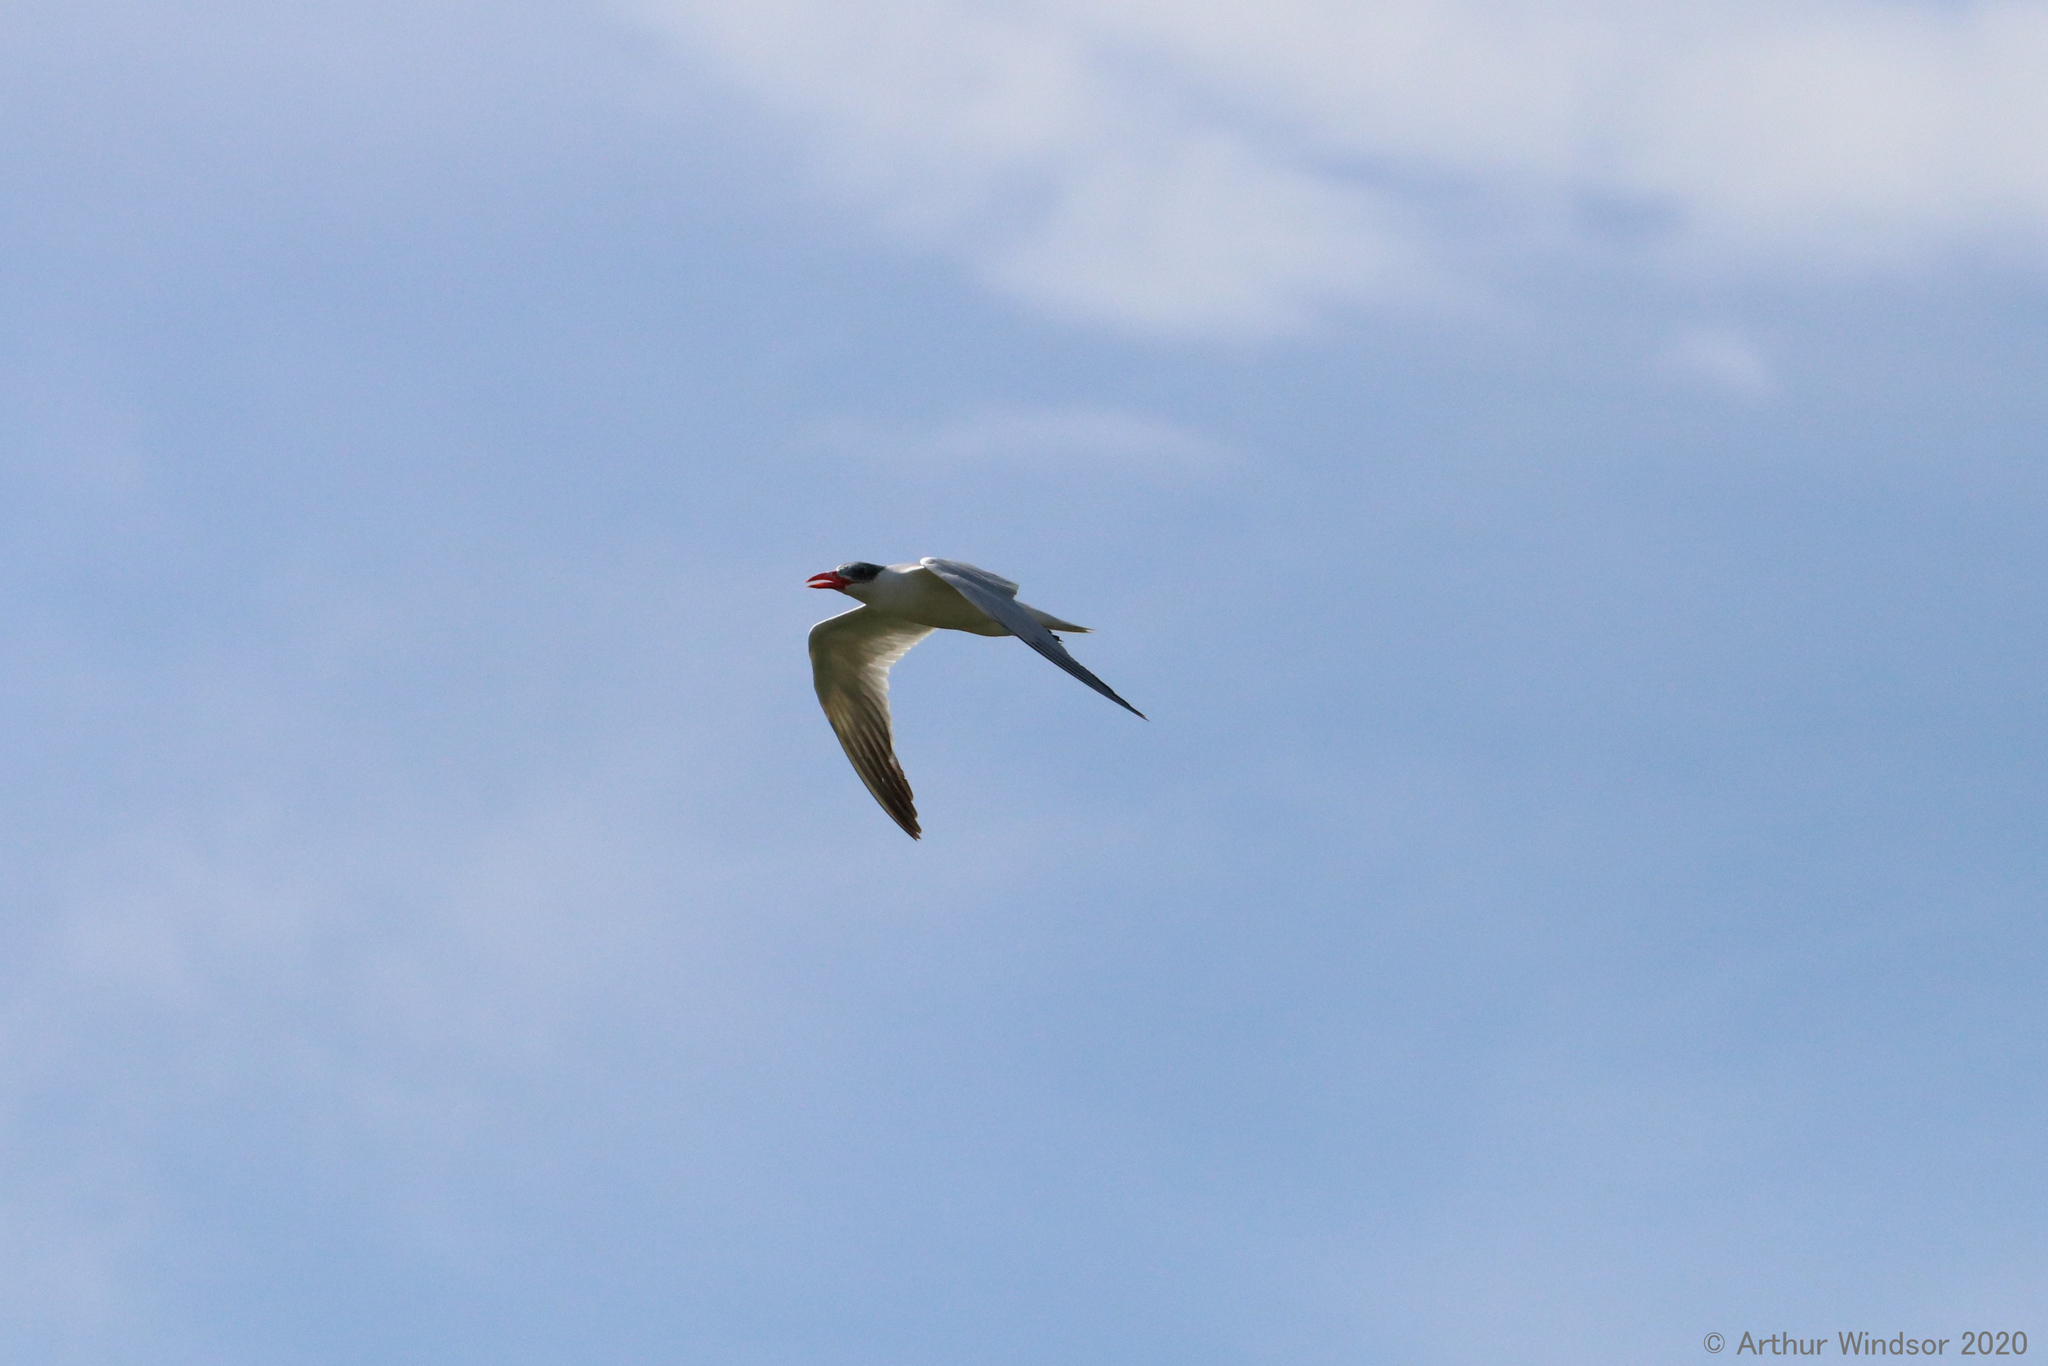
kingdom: Animalia
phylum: Chordata
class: Aves
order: Charadriiformes
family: Laridae
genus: Hydroprogne
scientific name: Hydroprogne caspia
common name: Caspian tern
